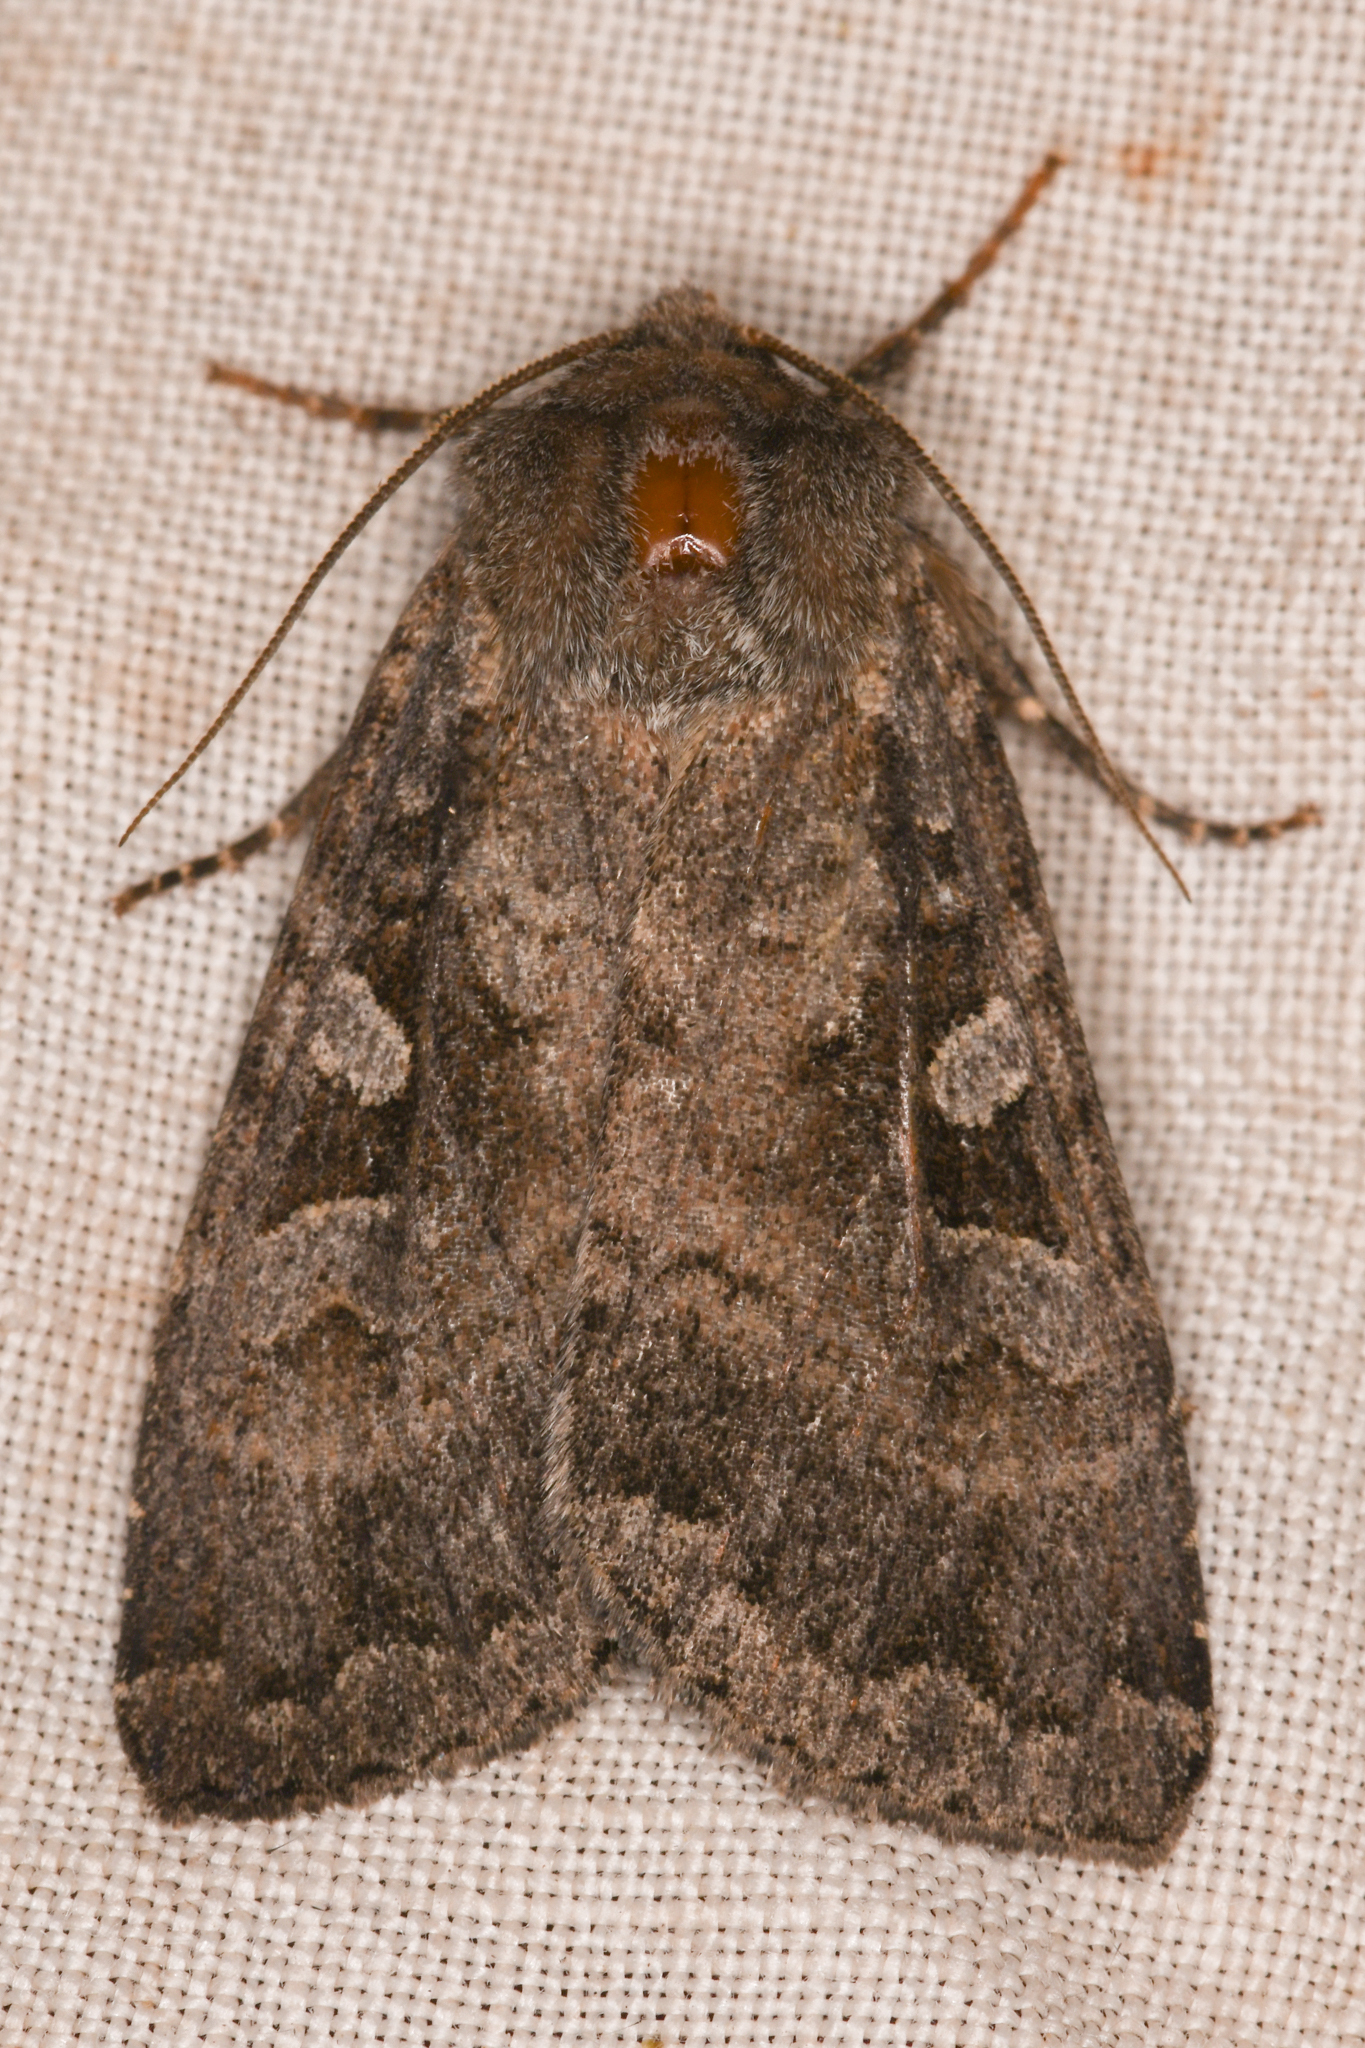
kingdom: Animalia
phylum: Arthropoda
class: Insecta
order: Lepidoptera
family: Noctuidae
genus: Eurois
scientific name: Eurois astricta
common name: Great brown dart
